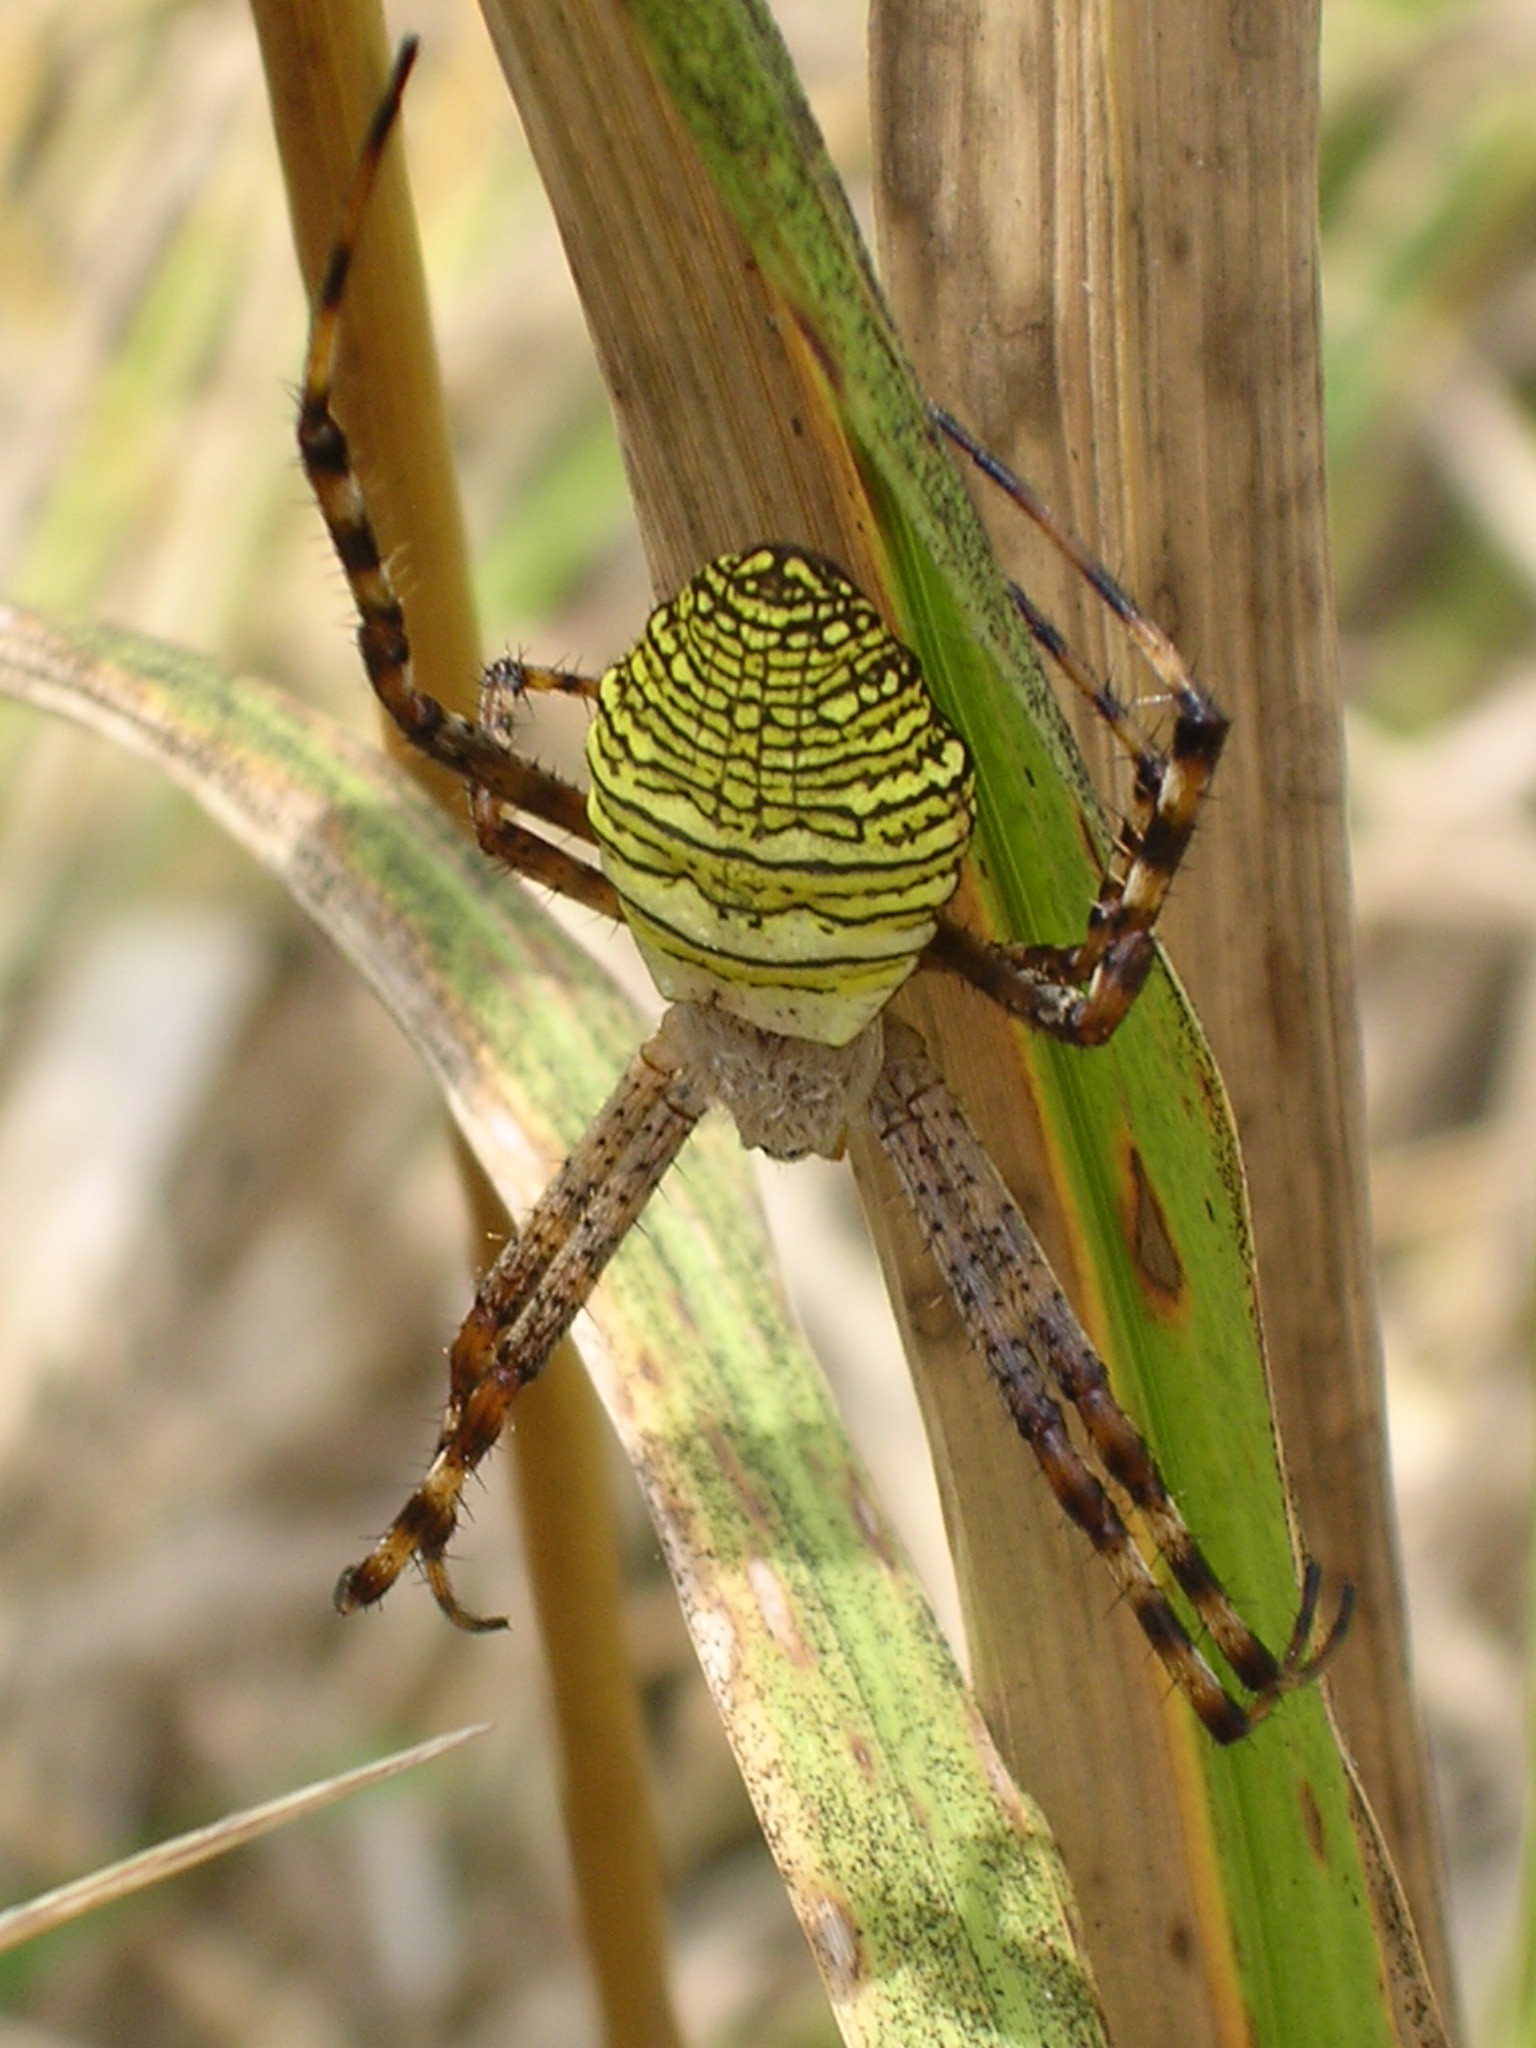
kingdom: Animalia
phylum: Arthropoda
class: Arachnida
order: Araneae
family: Araneidae
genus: Argiope
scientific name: Argiope aemula
